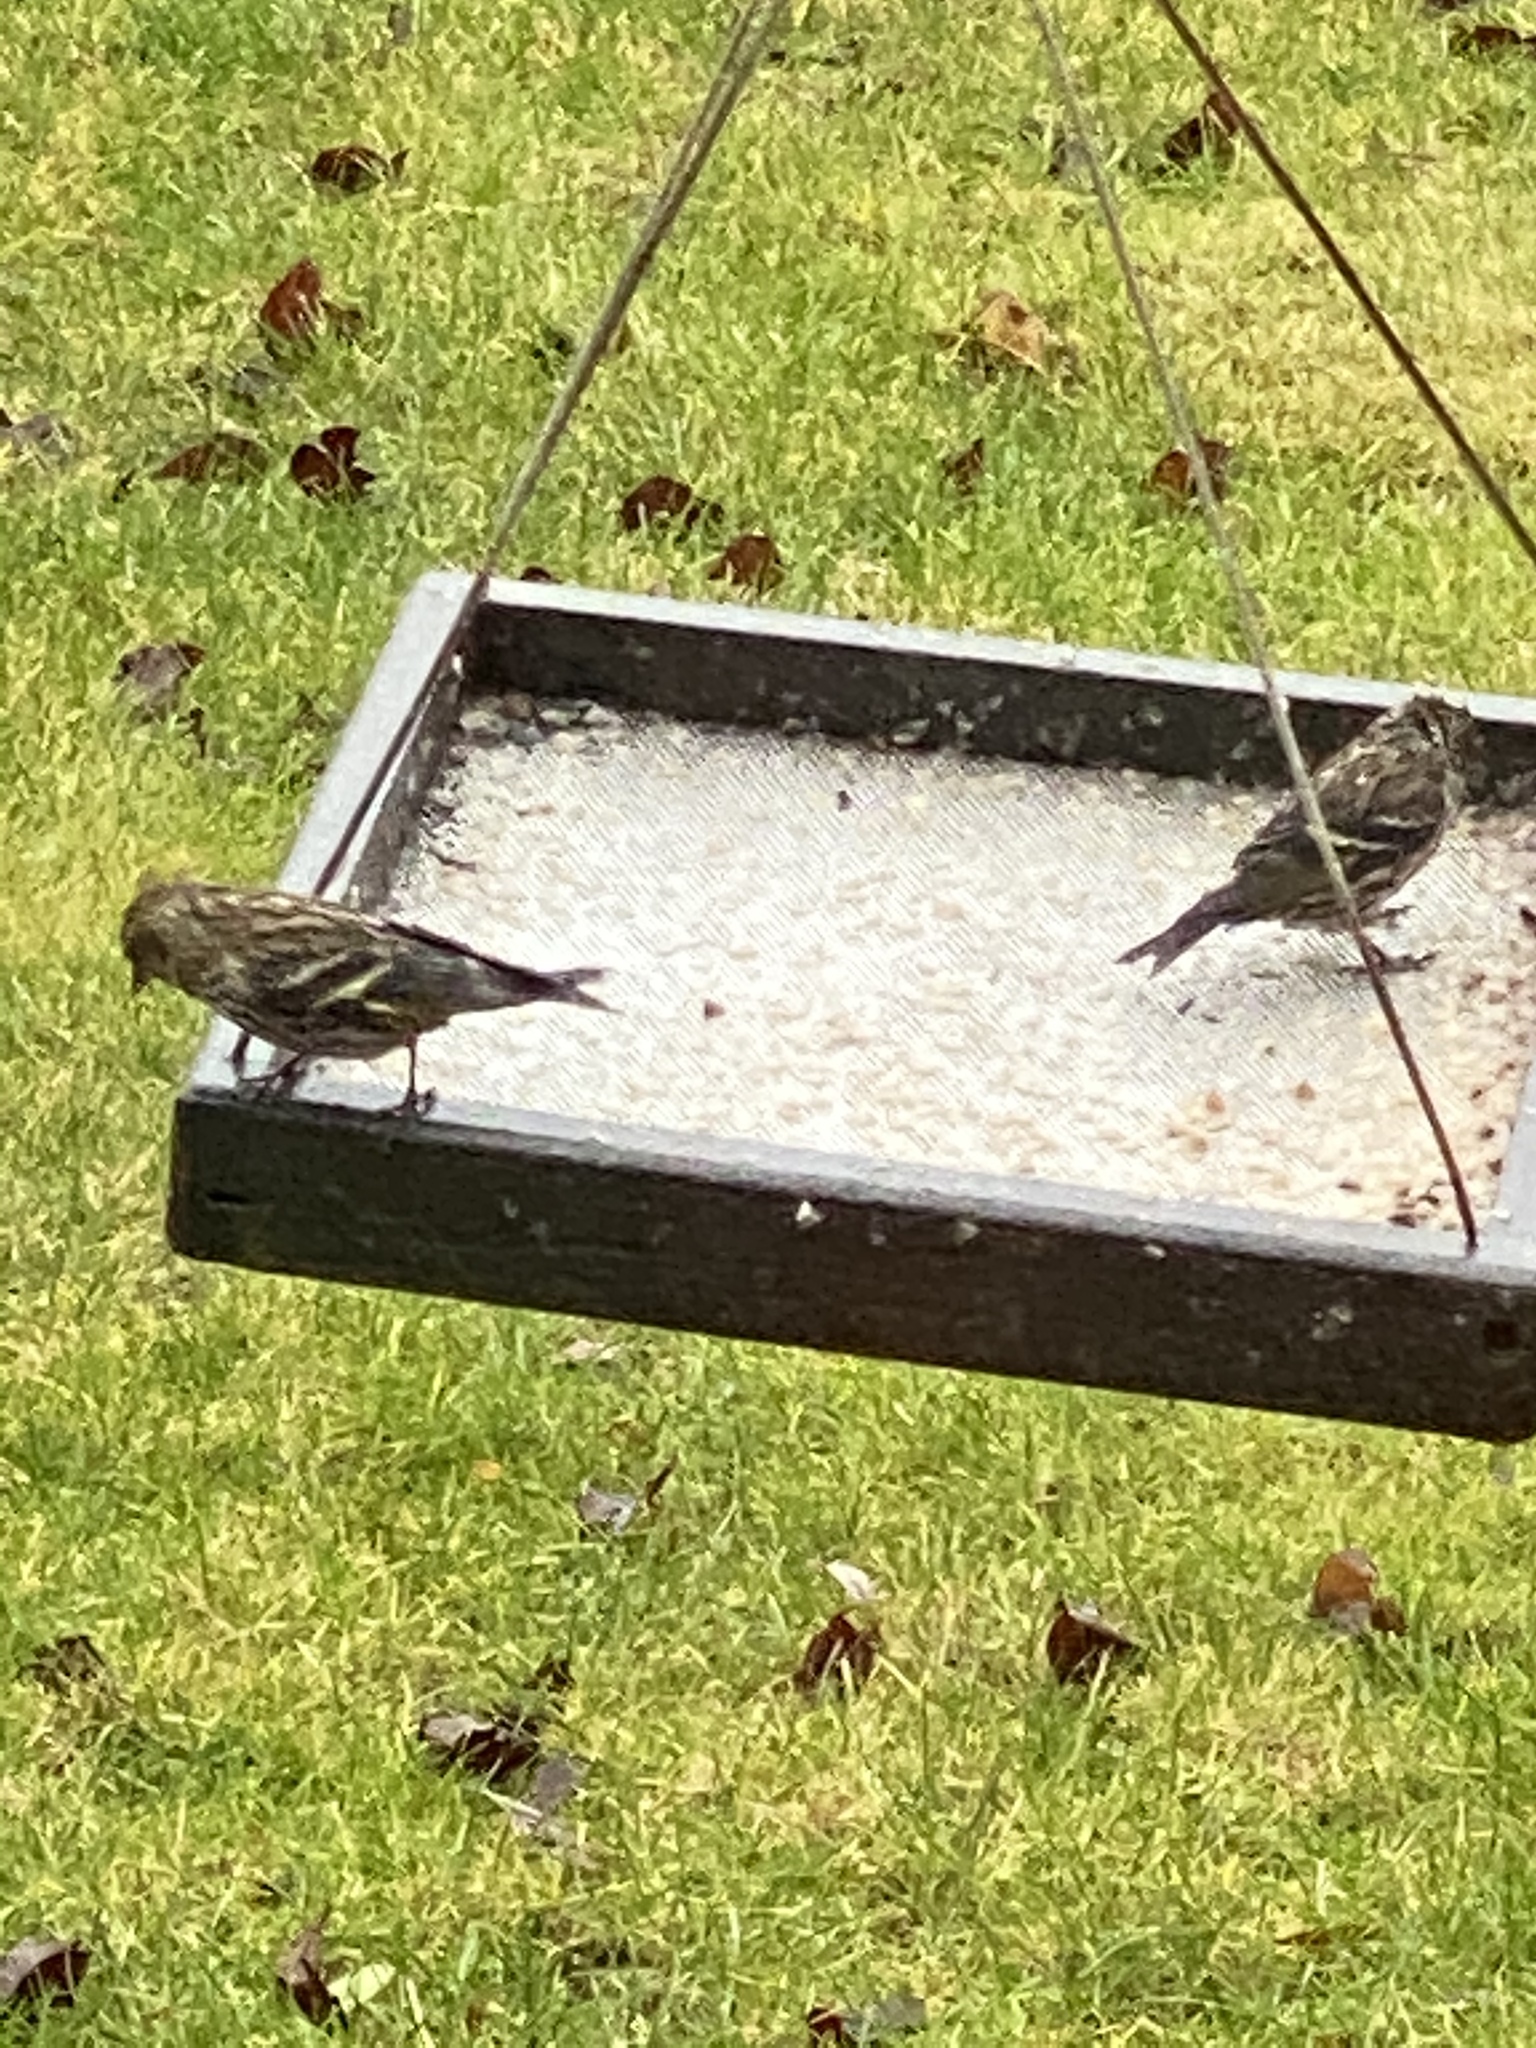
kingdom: Animalia
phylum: Chordata
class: Aves
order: Passeriformes
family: Fringillidae
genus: Spinus
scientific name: Spinus pinus
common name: Pine siskin
